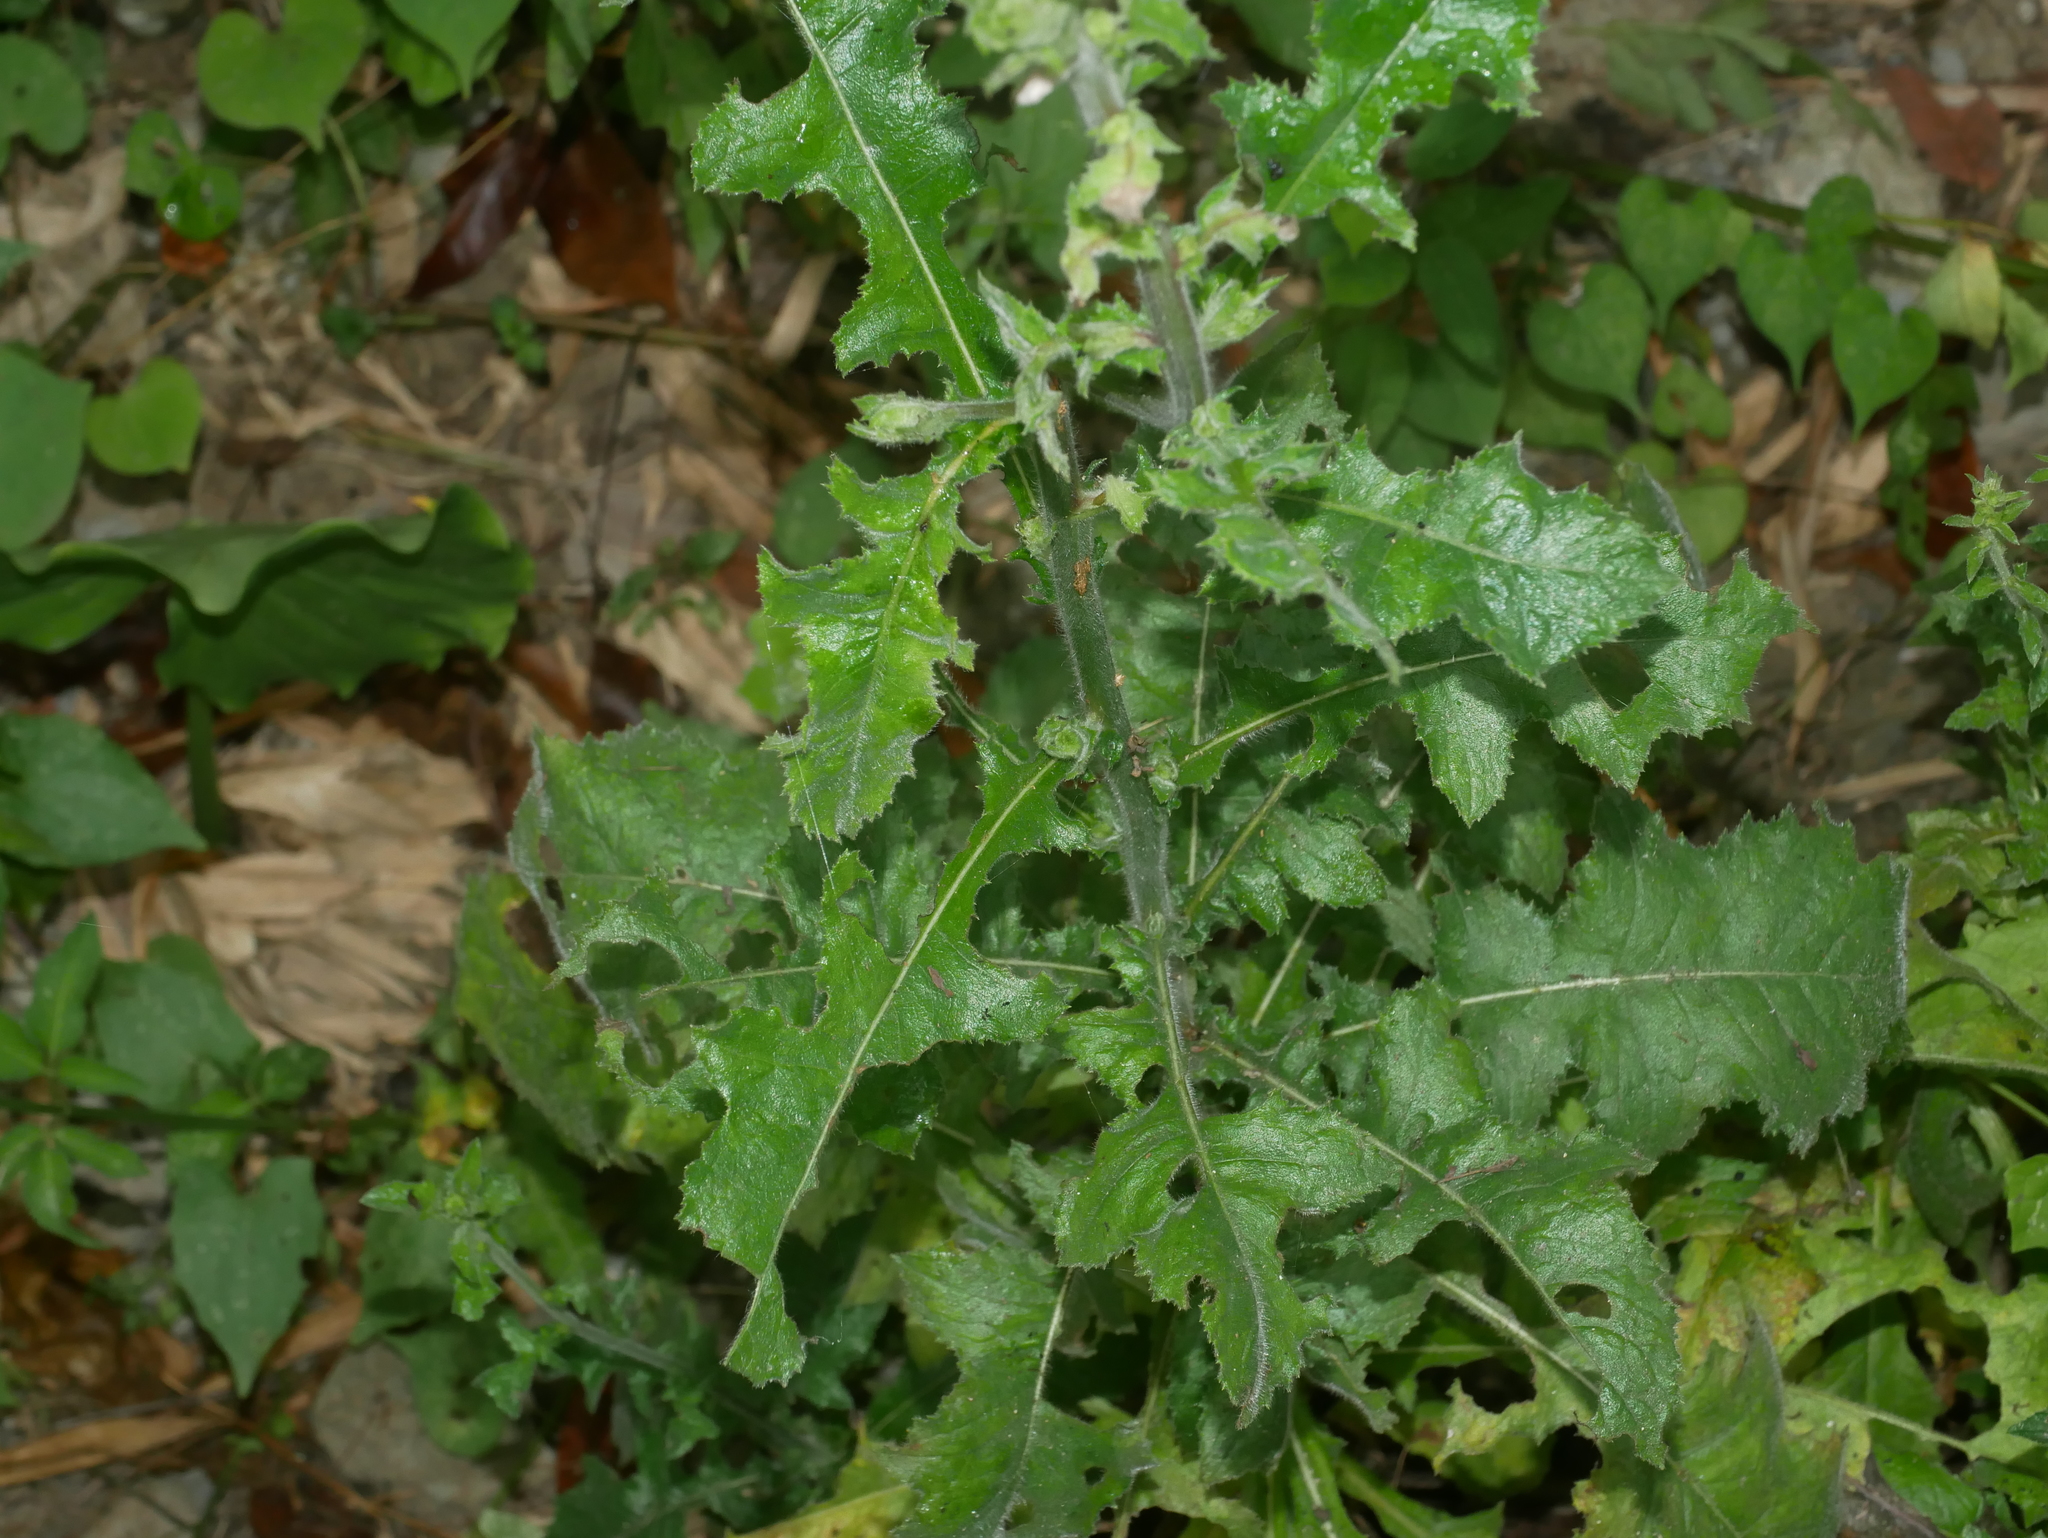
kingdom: Plantae
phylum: Tracheophyta
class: Magnoliopsida
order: Asterales
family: Asteraceae
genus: Blumea
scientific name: Blumea sinuata
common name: Cutleaf false oxtongue
